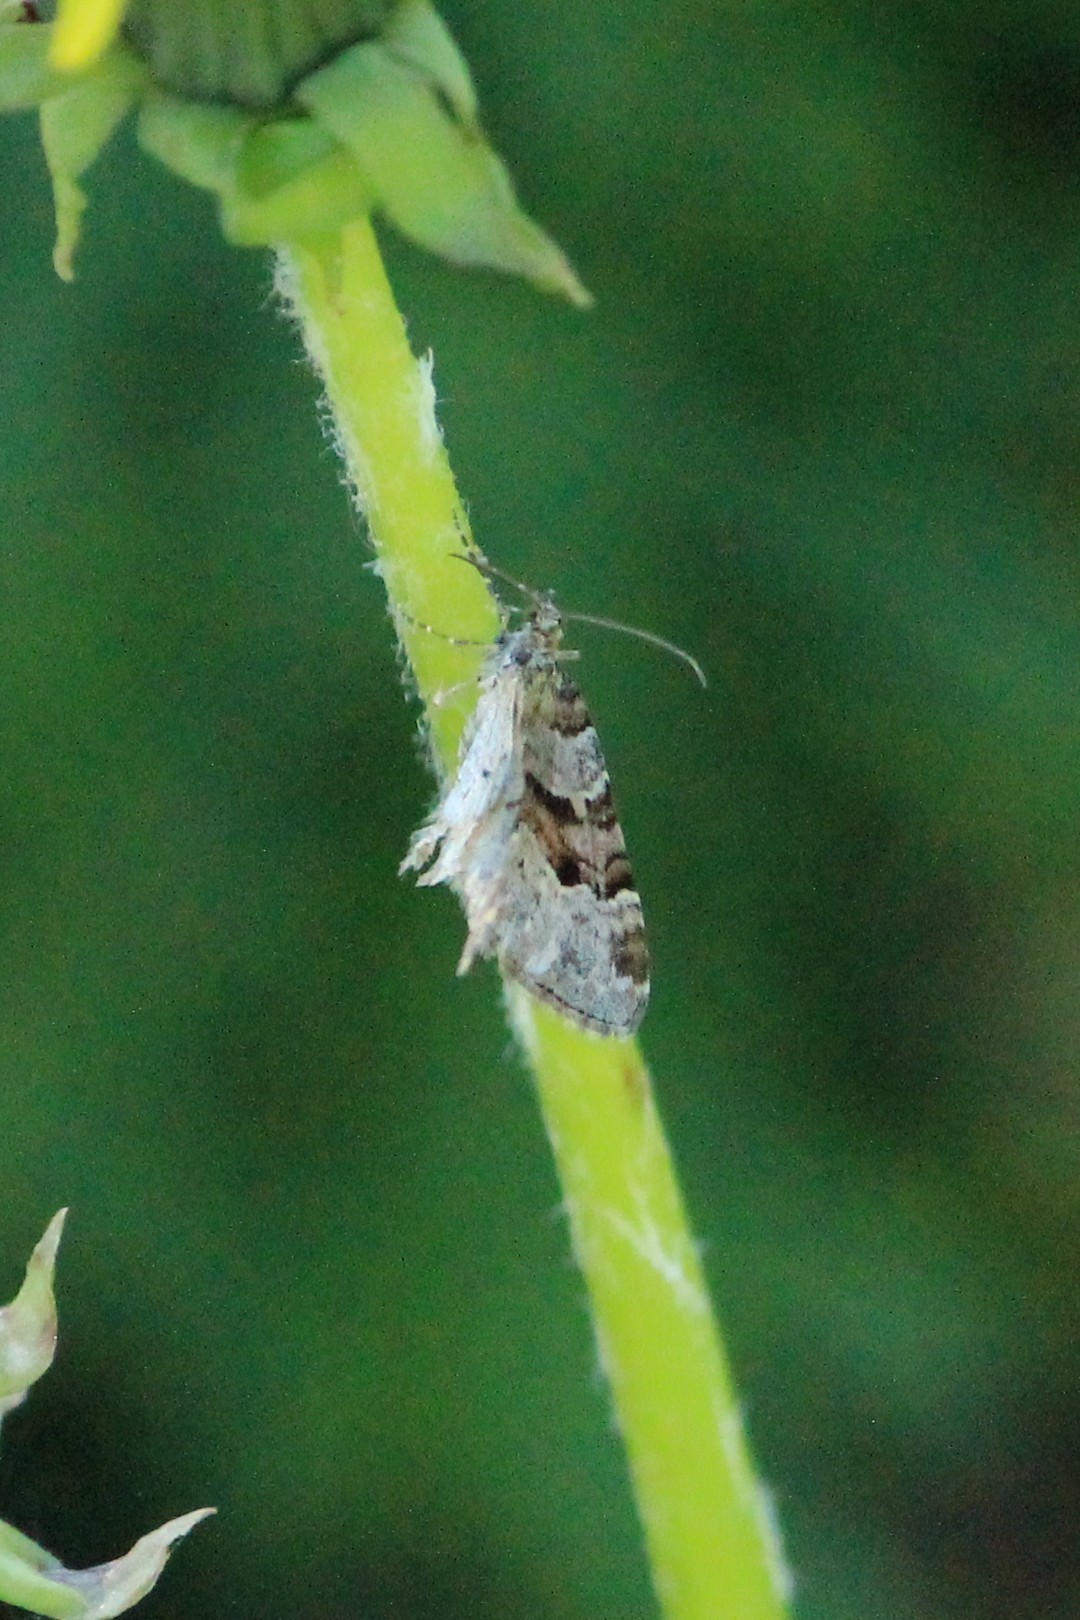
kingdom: Animalia
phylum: Arthropoda
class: Insecta
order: Lepidoptera
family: Geometridae
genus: Xanthorhoe
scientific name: Xanthorhoe designata
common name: Flame carpet
